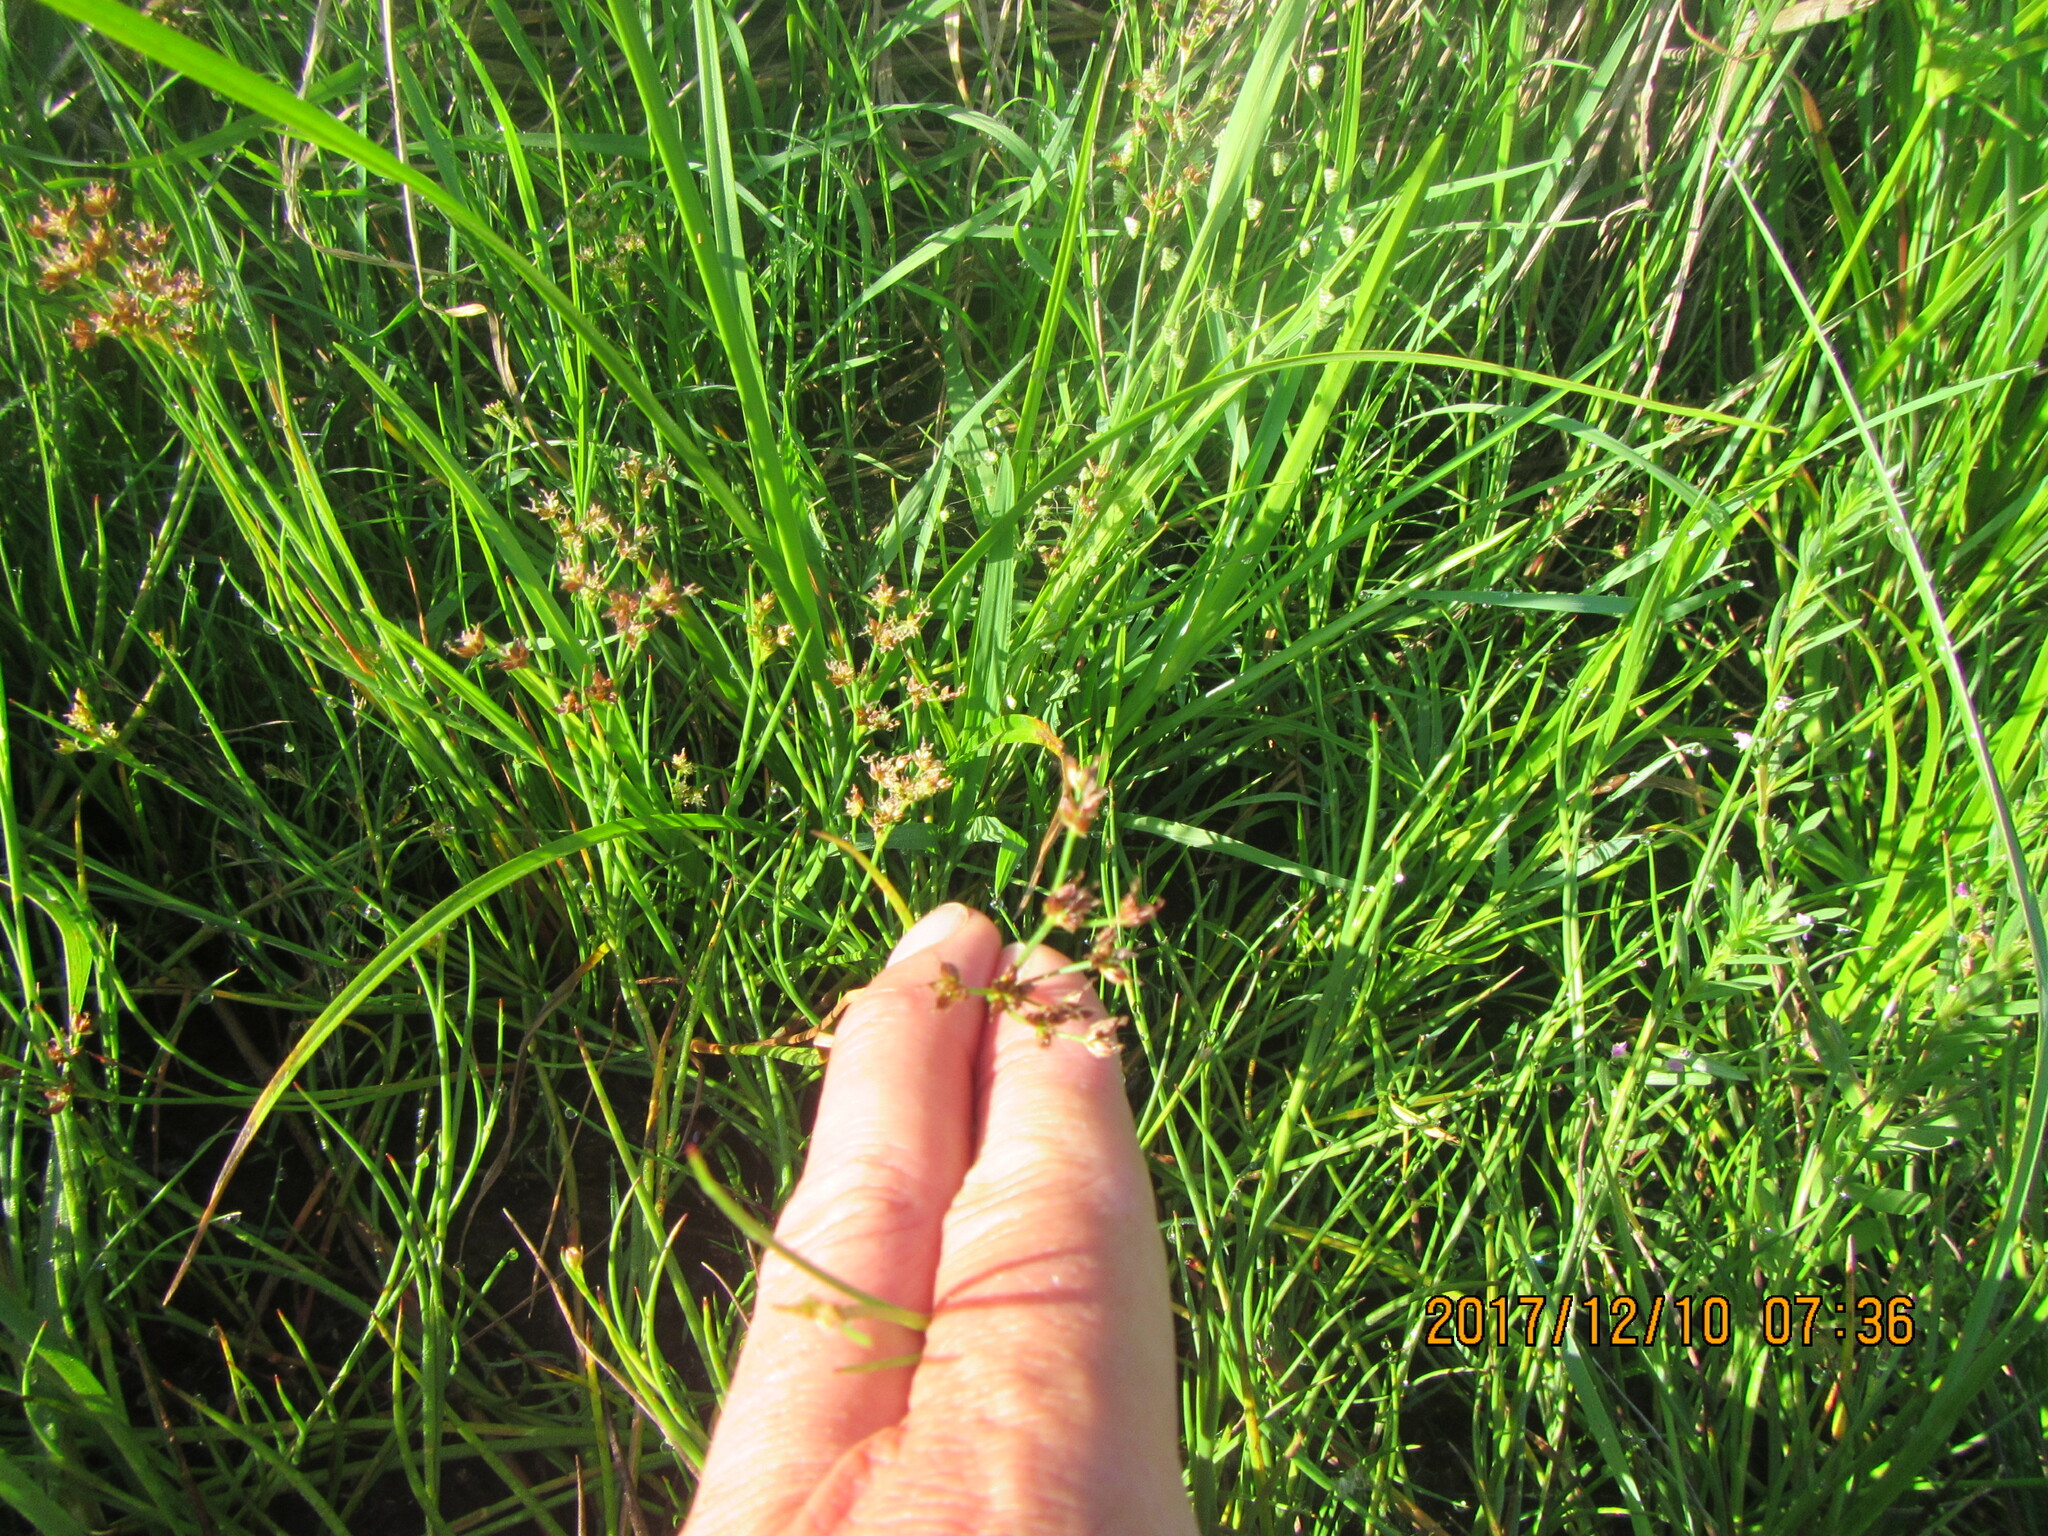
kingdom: Plantae
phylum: Tracheophyta
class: Liliopsida
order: Poales
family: Juncaceae
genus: Juncus
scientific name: Juncus articulatus
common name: Jointed rush
